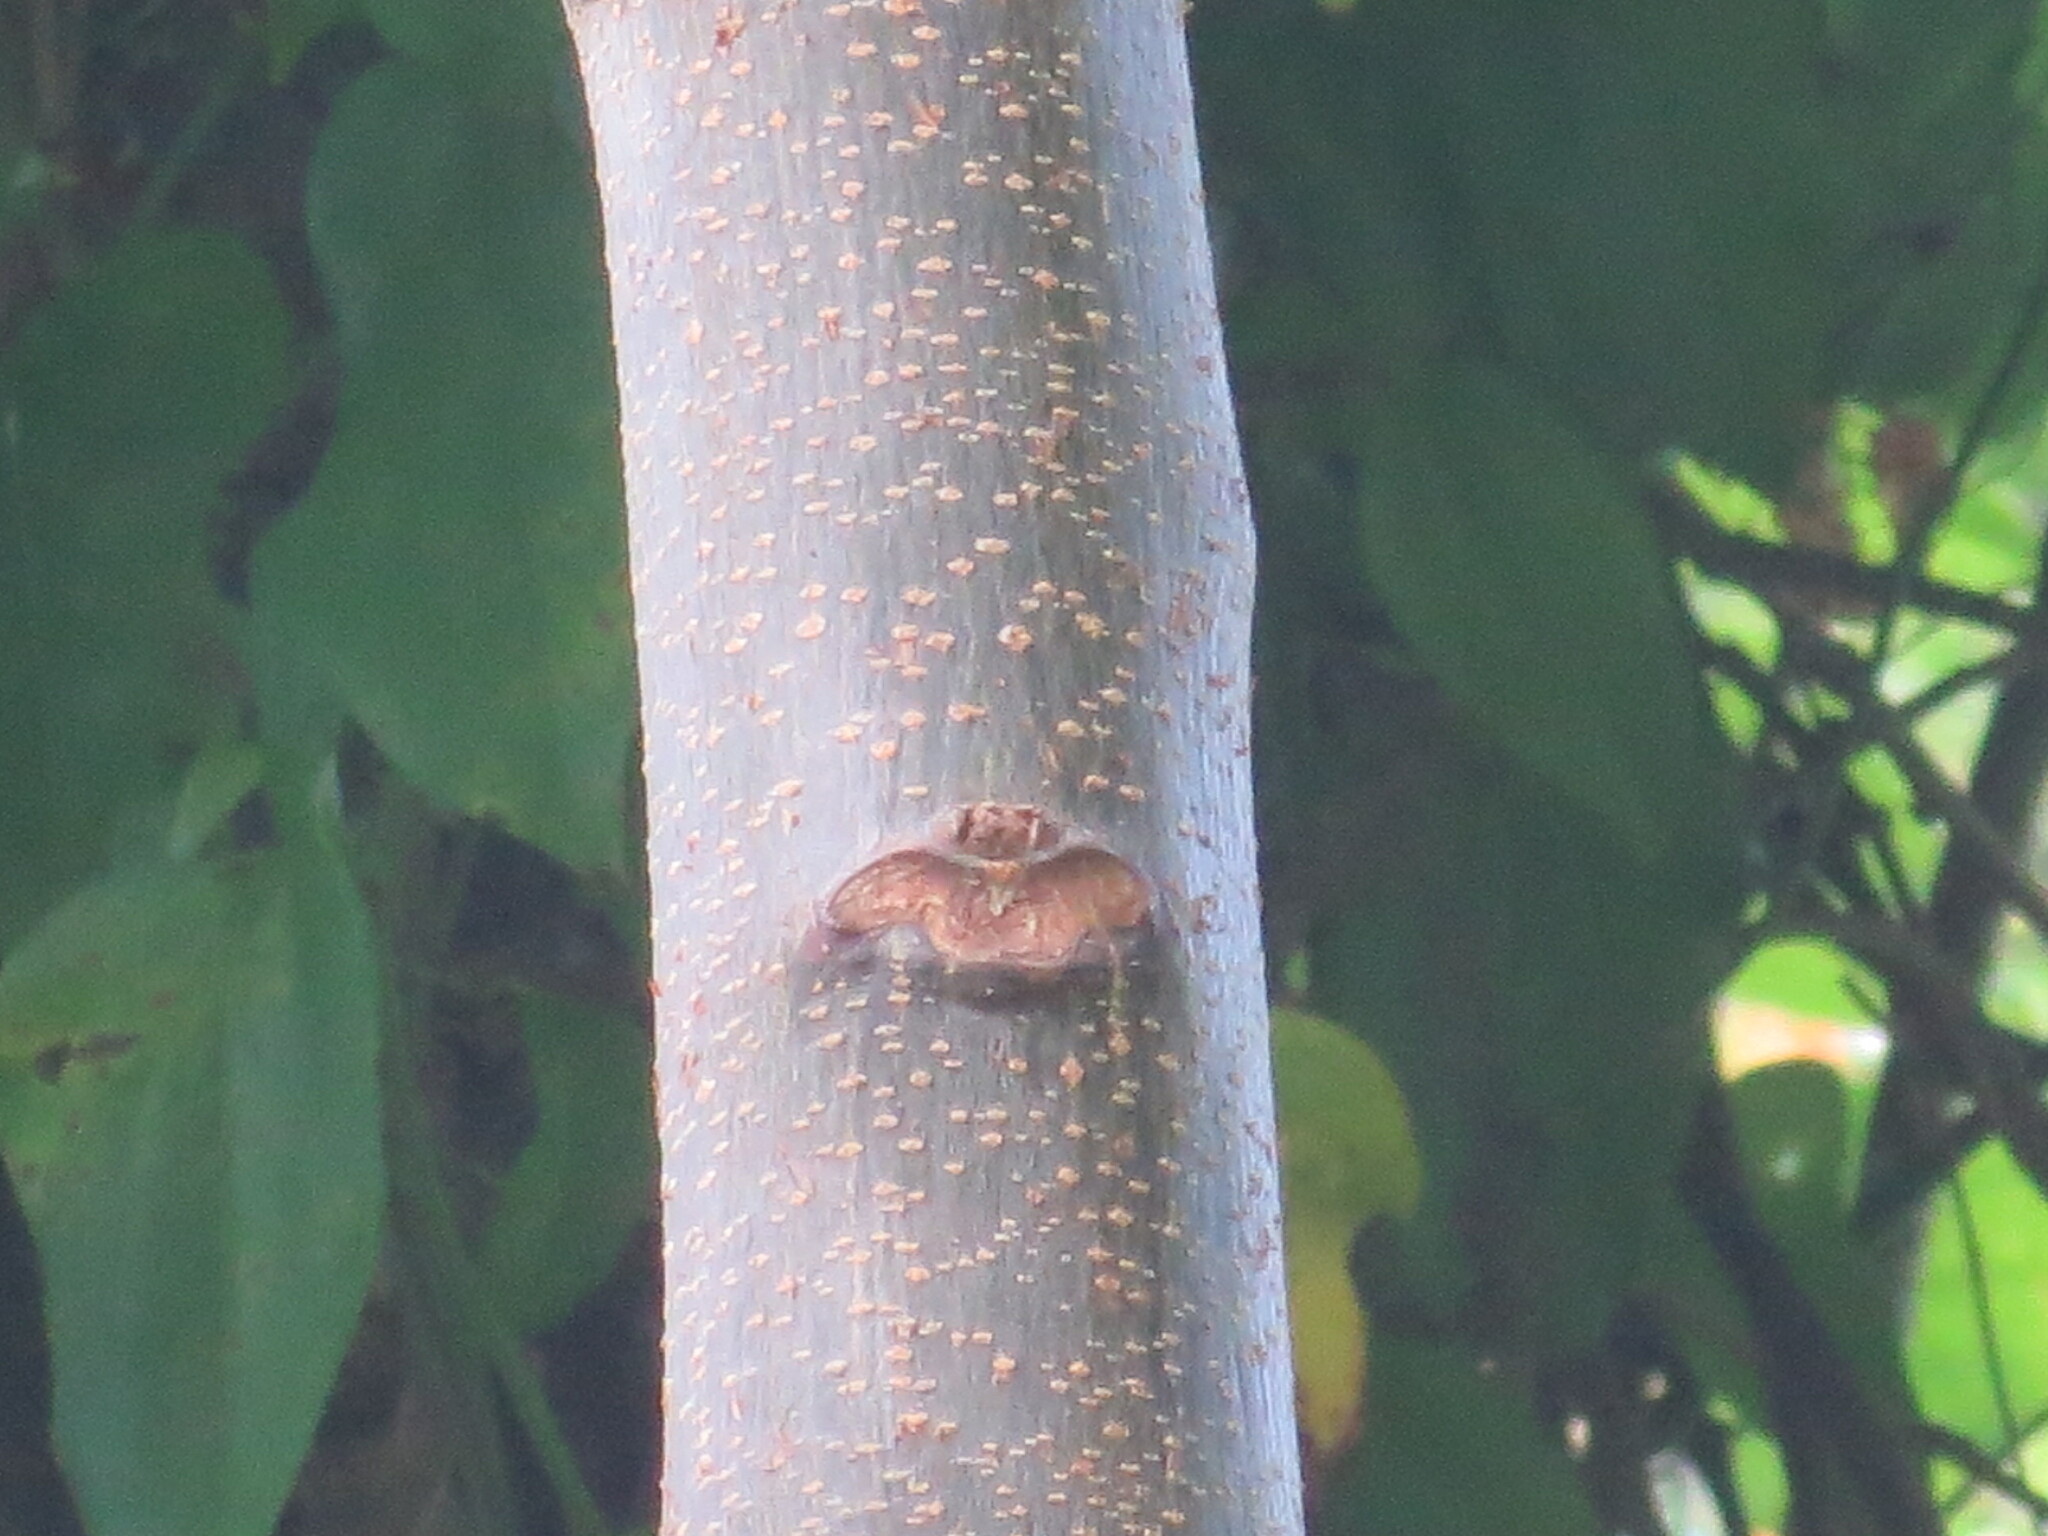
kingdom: Plantae
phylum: Tracheophyta
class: Magnoliopsida
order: Sapindales
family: Meliaceae
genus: Melia
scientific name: Melia azedarach
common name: Chinaberrytree
